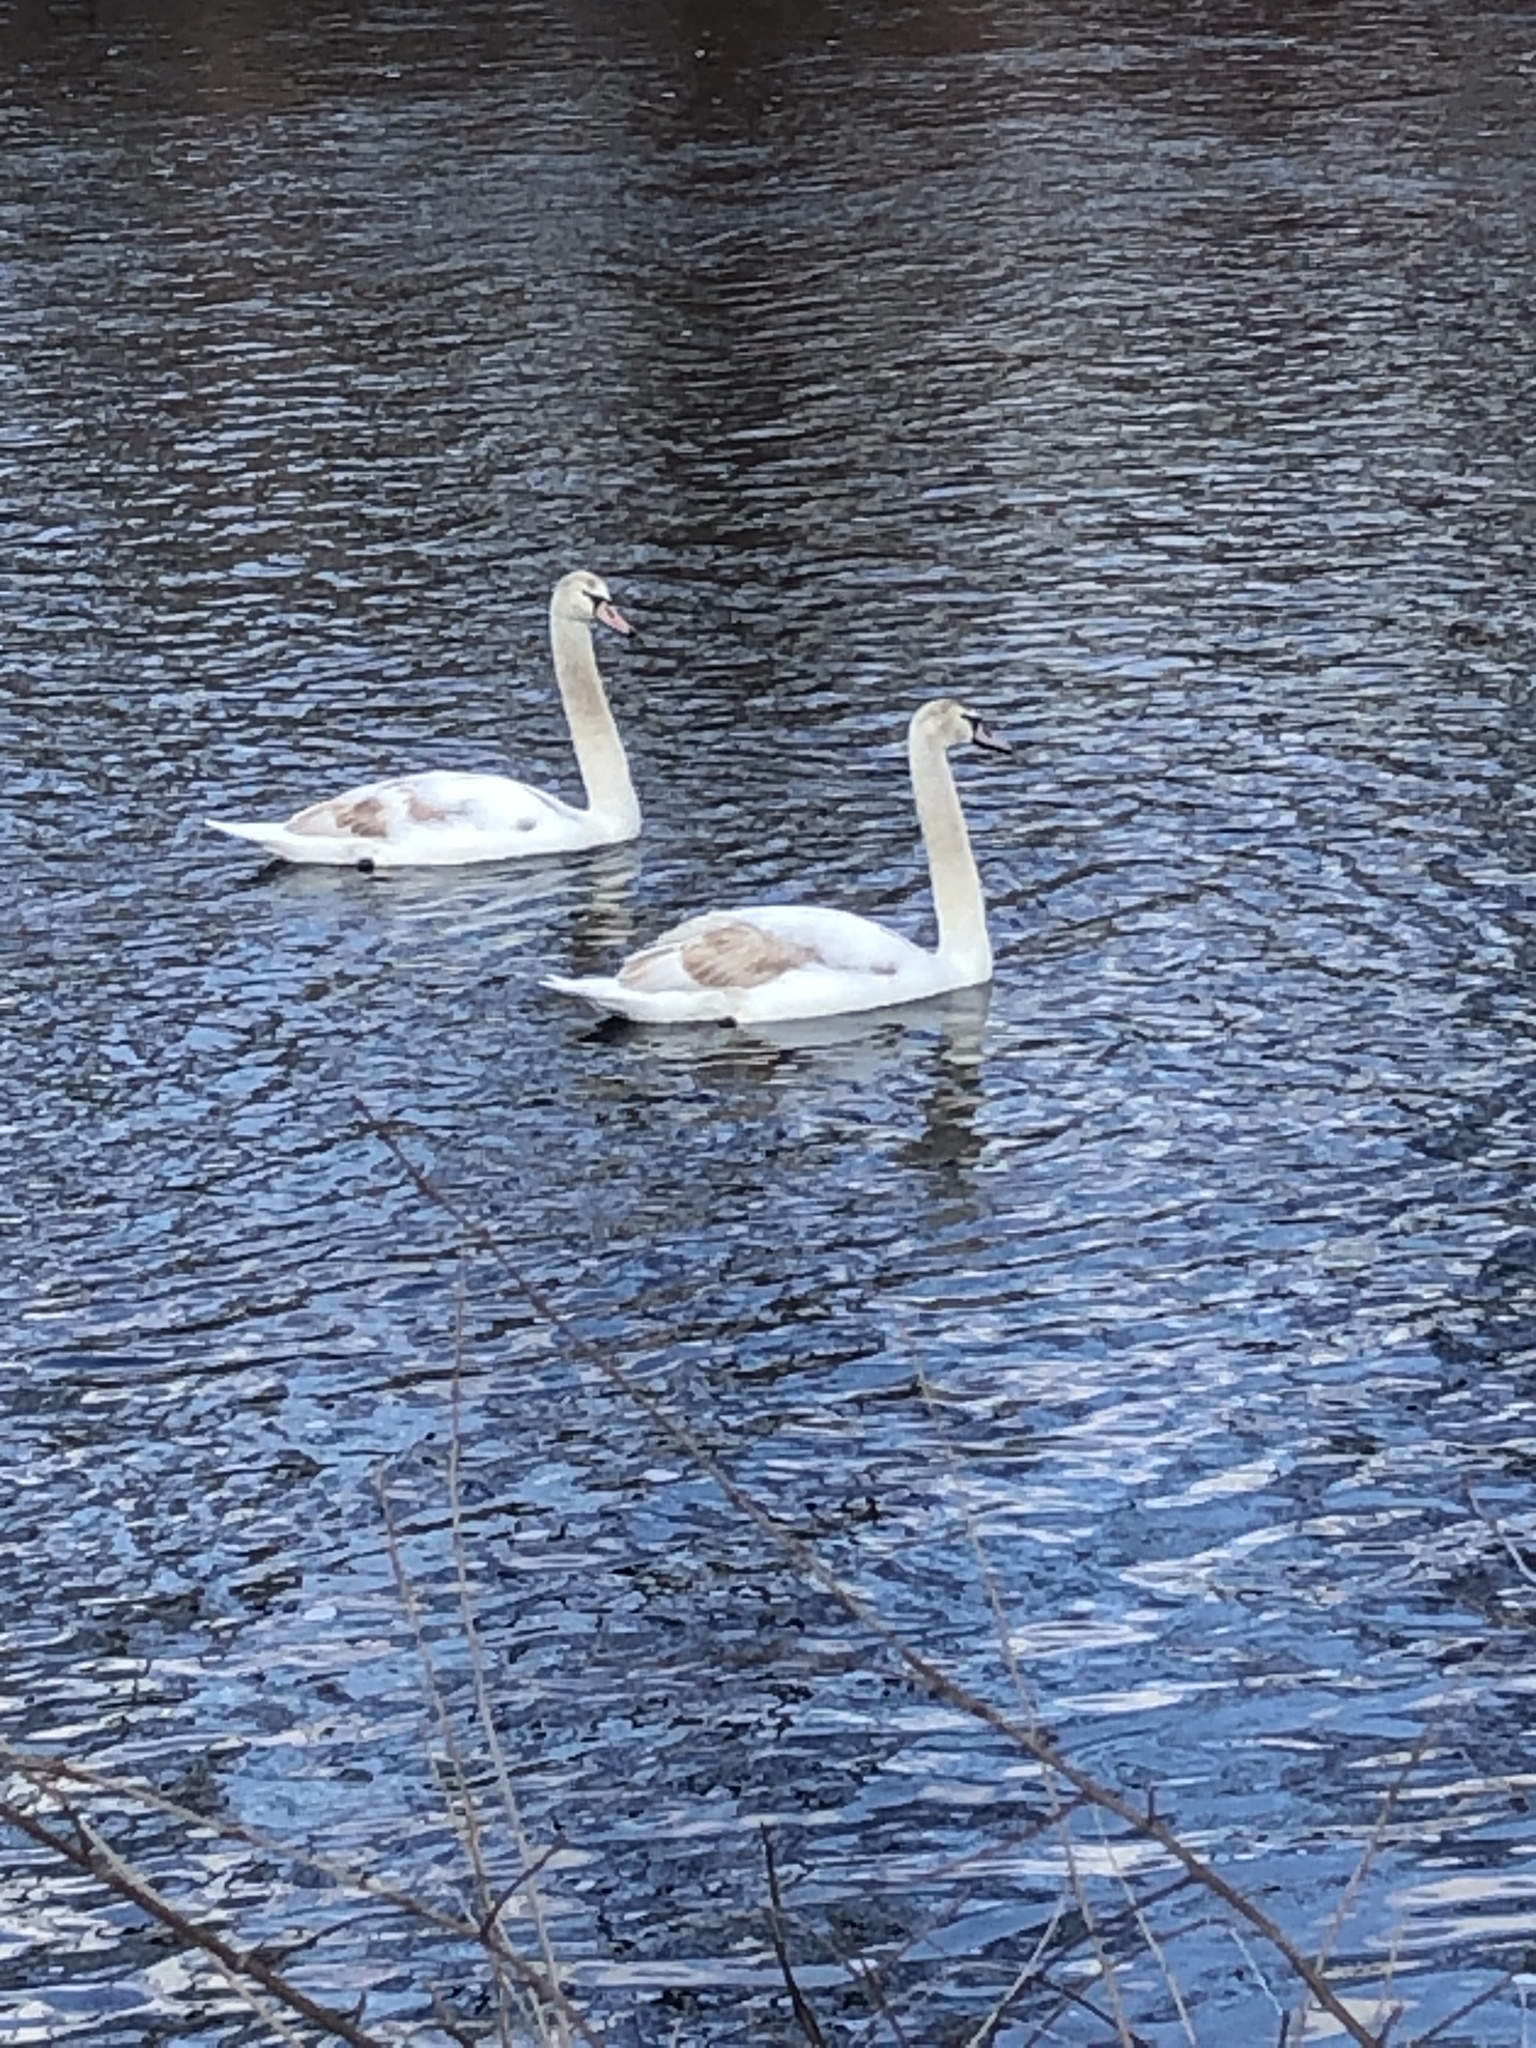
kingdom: Animalia
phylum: Chordata
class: Aves
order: Anseriformes
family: Anatidae
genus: Cygnus
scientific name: Cygnus olor
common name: Mute swan
